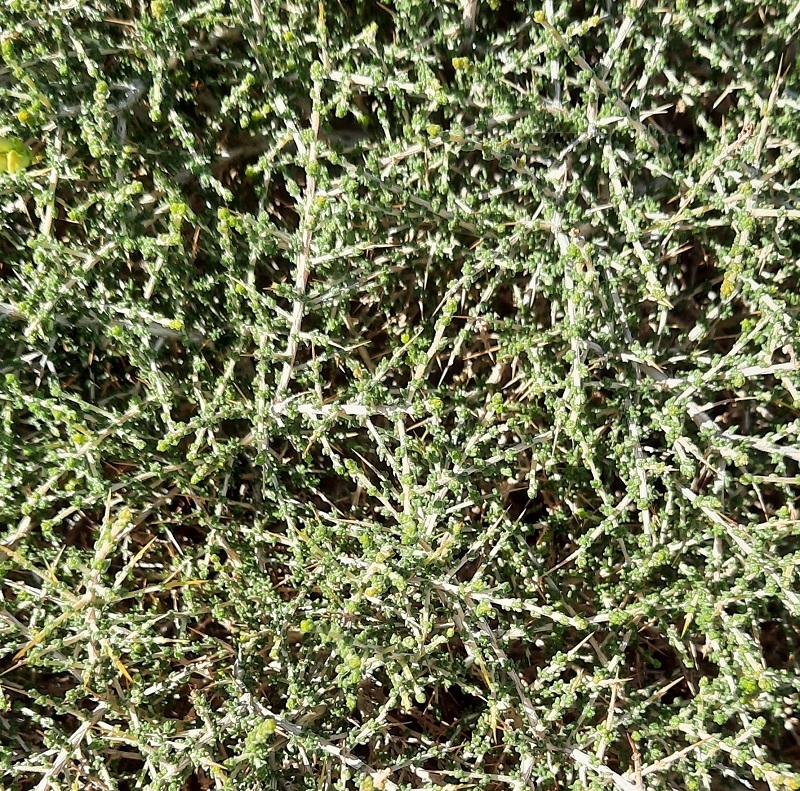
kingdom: Plantae
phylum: Tracheophyta
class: Magnoliopsida
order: Fabales
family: Fabaceae
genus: Aspalathus
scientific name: Aspalathus acuminata
